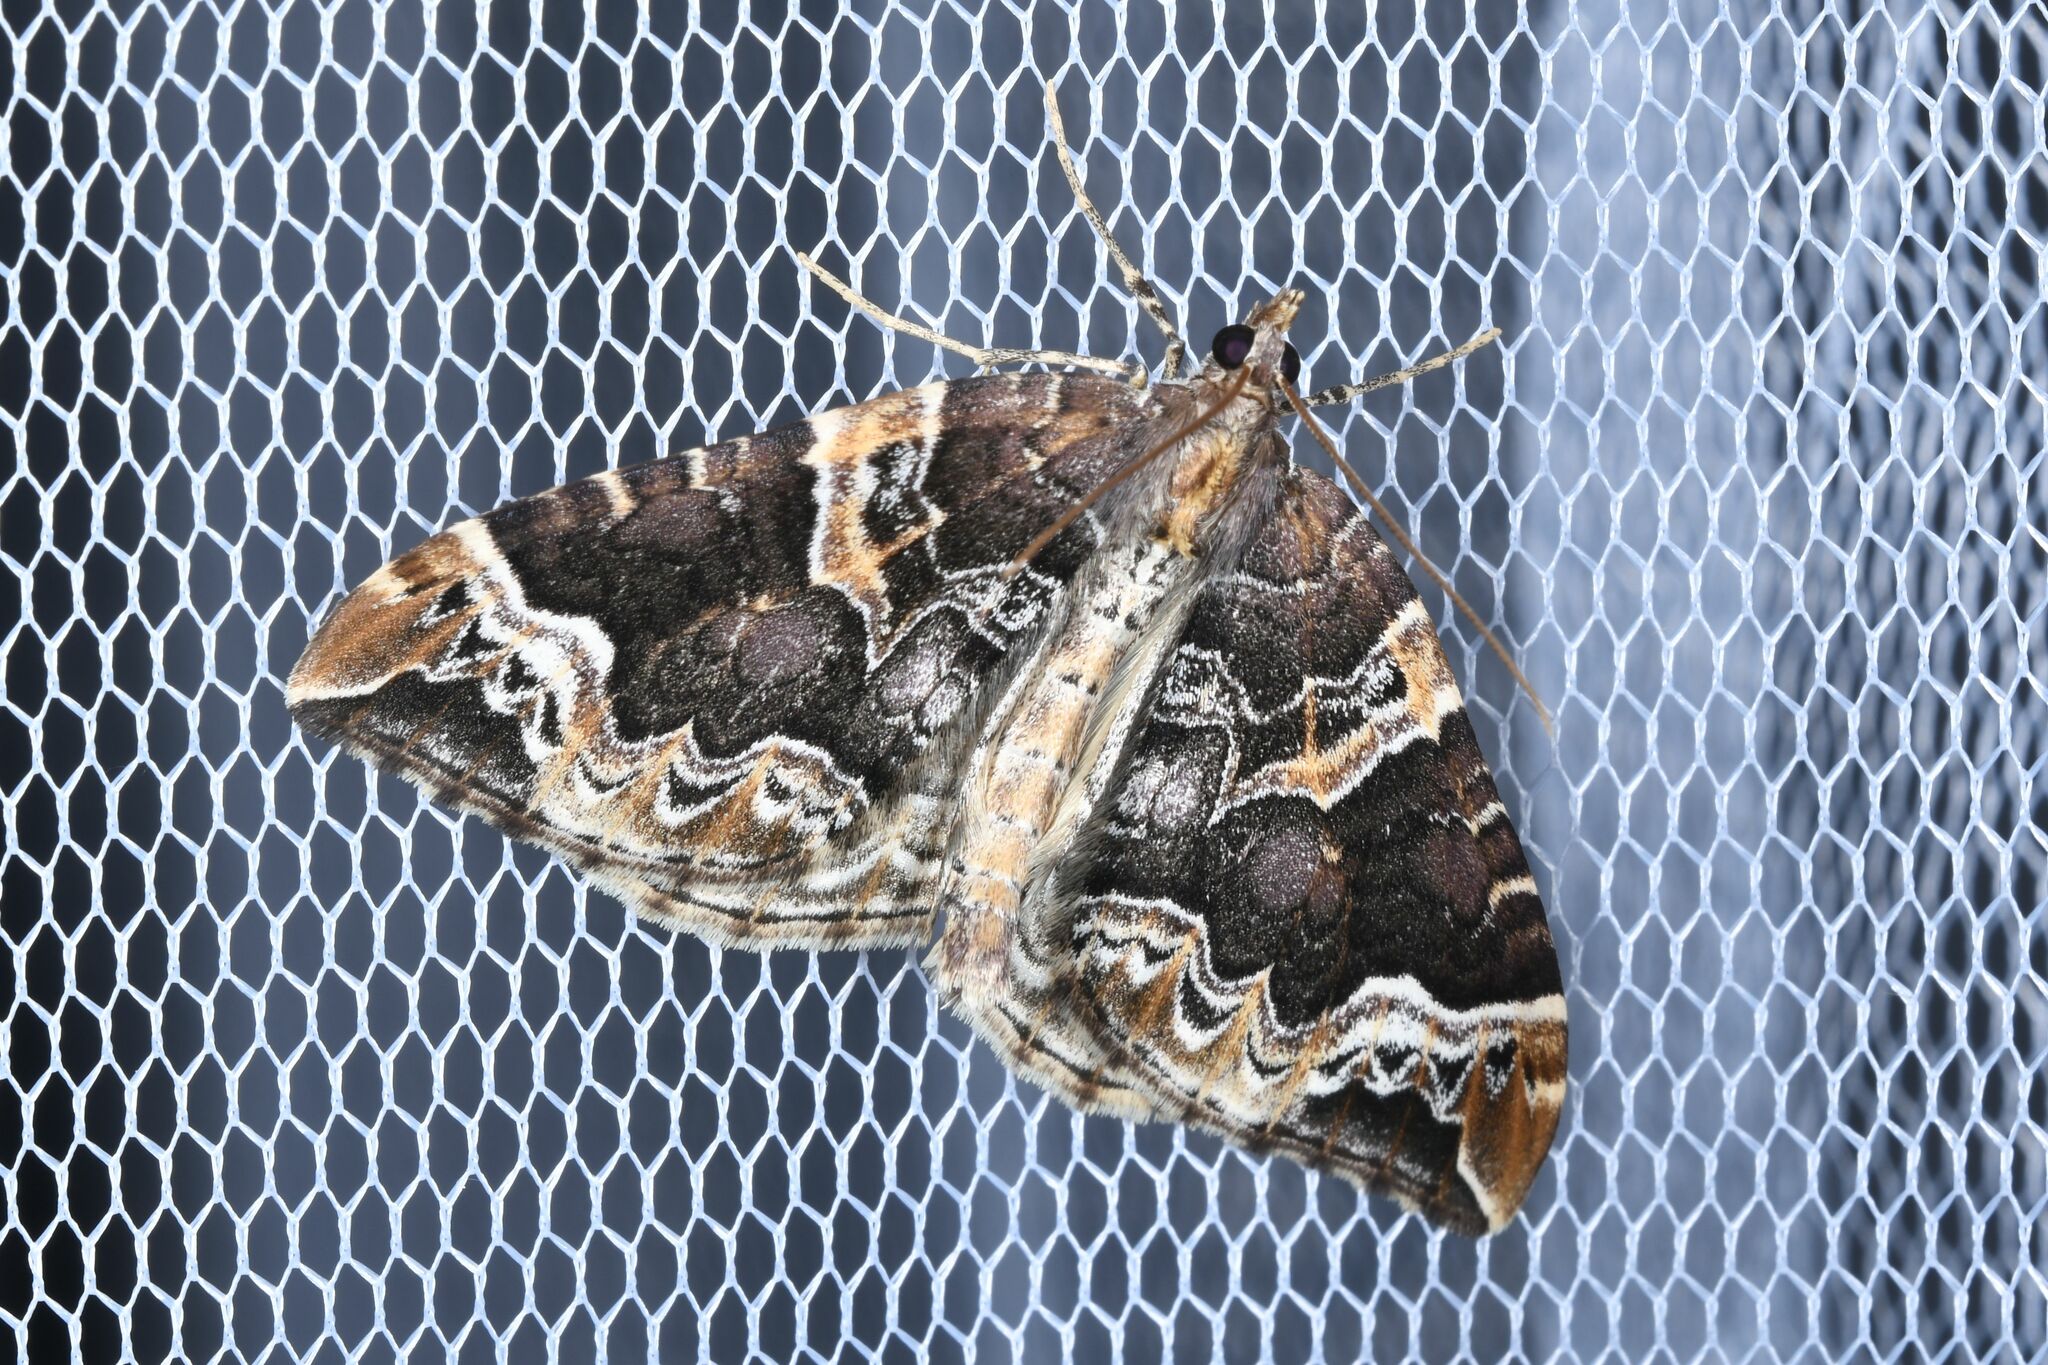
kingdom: Animalia
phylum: Arthropoda
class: Insecta
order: Lepidoptera
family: Geometridae
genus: Eulithis
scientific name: Eulithis prunata
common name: Phoenix
